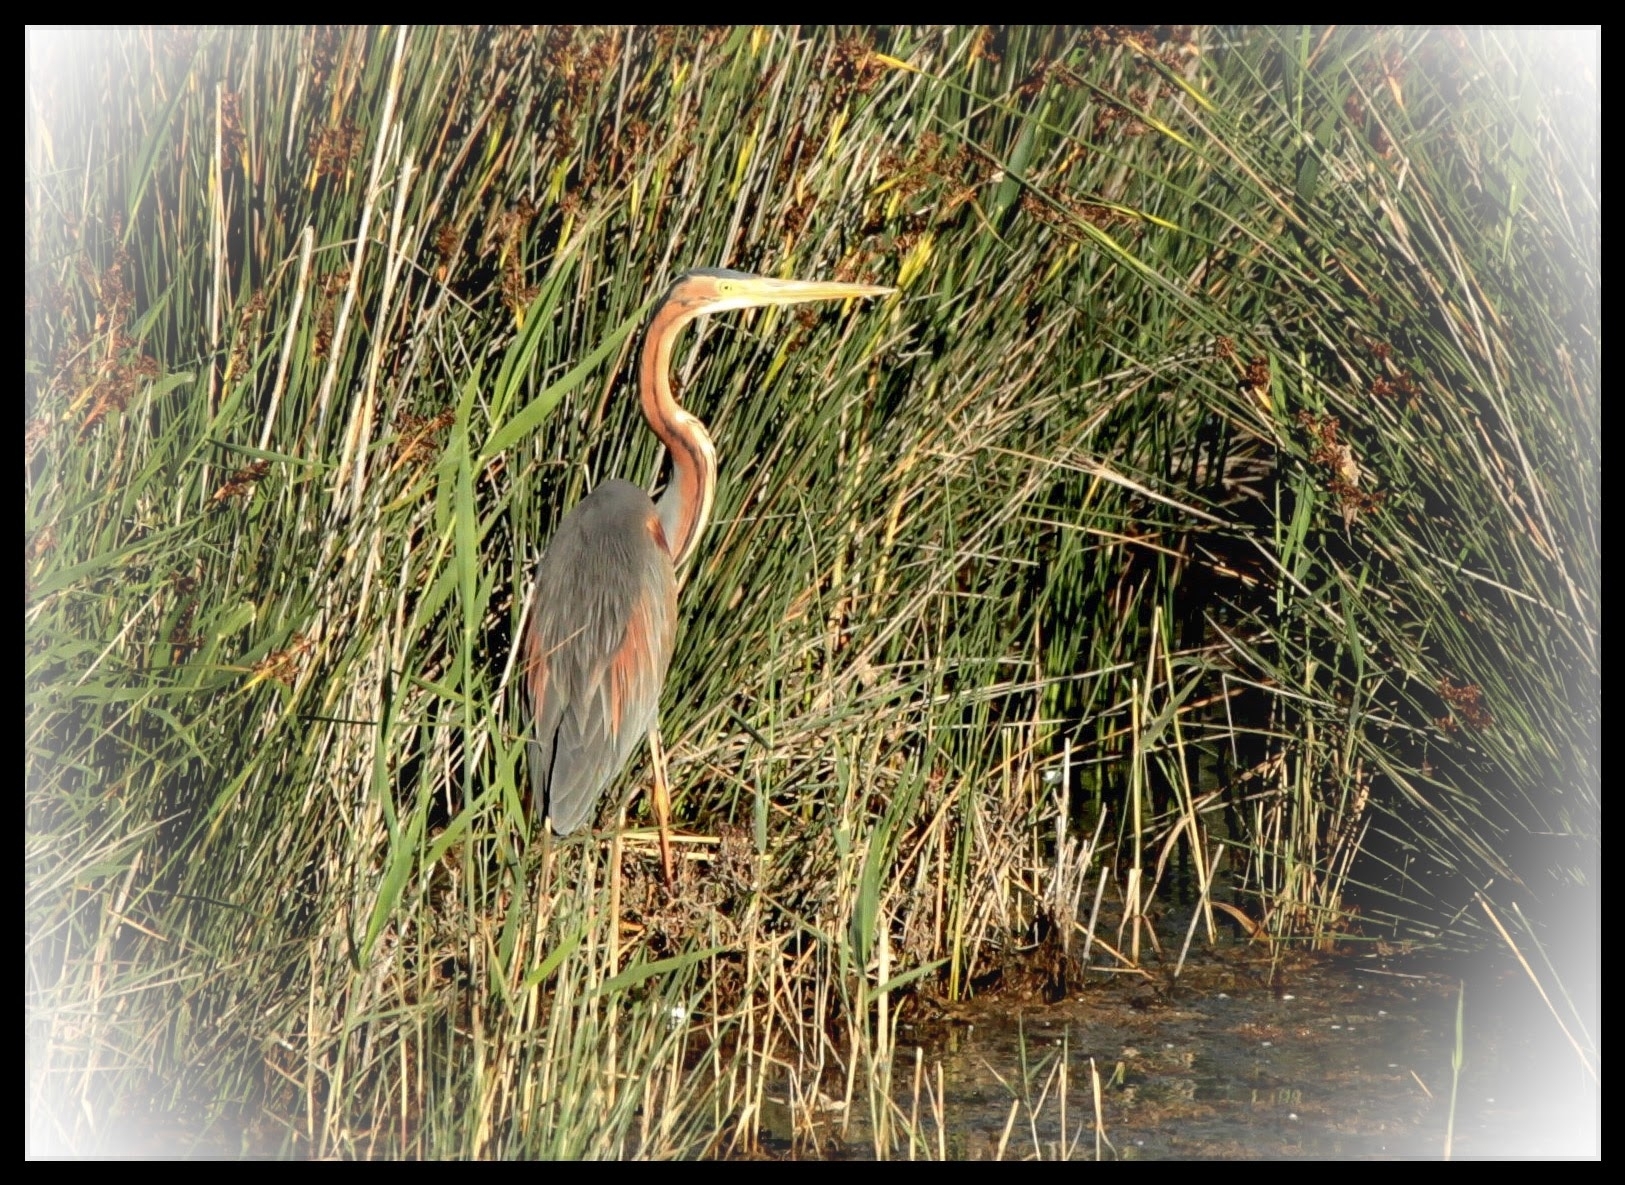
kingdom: Animalia
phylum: Chordata
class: Aves
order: Pelecaniformes
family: Ardeidae
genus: Ardea
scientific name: Ardea purpurea
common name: Purple heron
